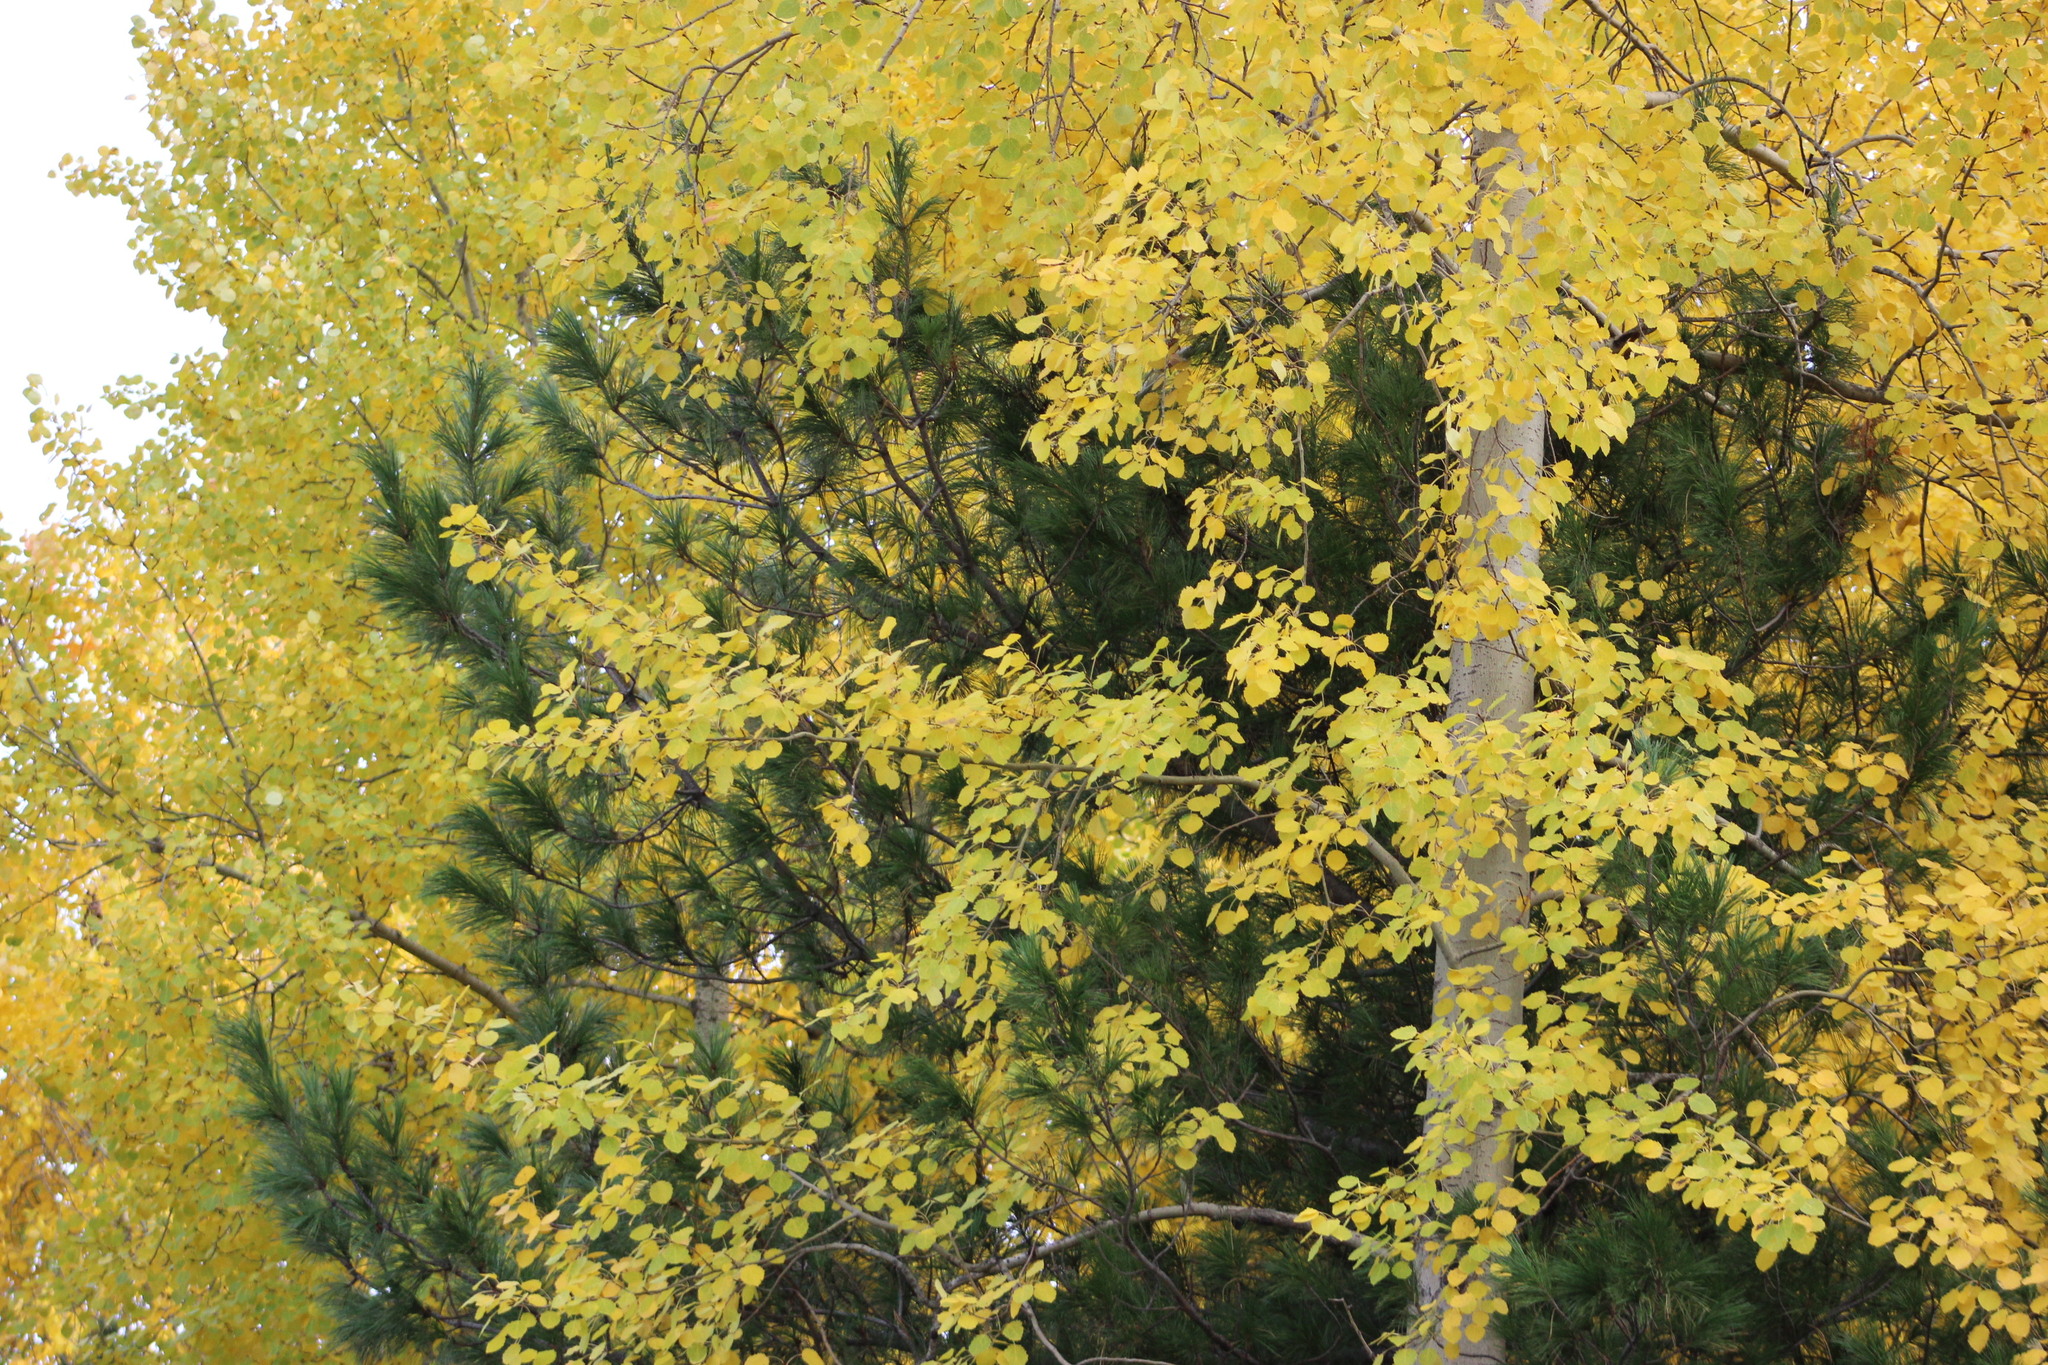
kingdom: Plantae
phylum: Tracheophyta
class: Magnoliopsida
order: Malpighiales
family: Salicaceae
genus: Populus
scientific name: Populus tremula
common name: European aspen
